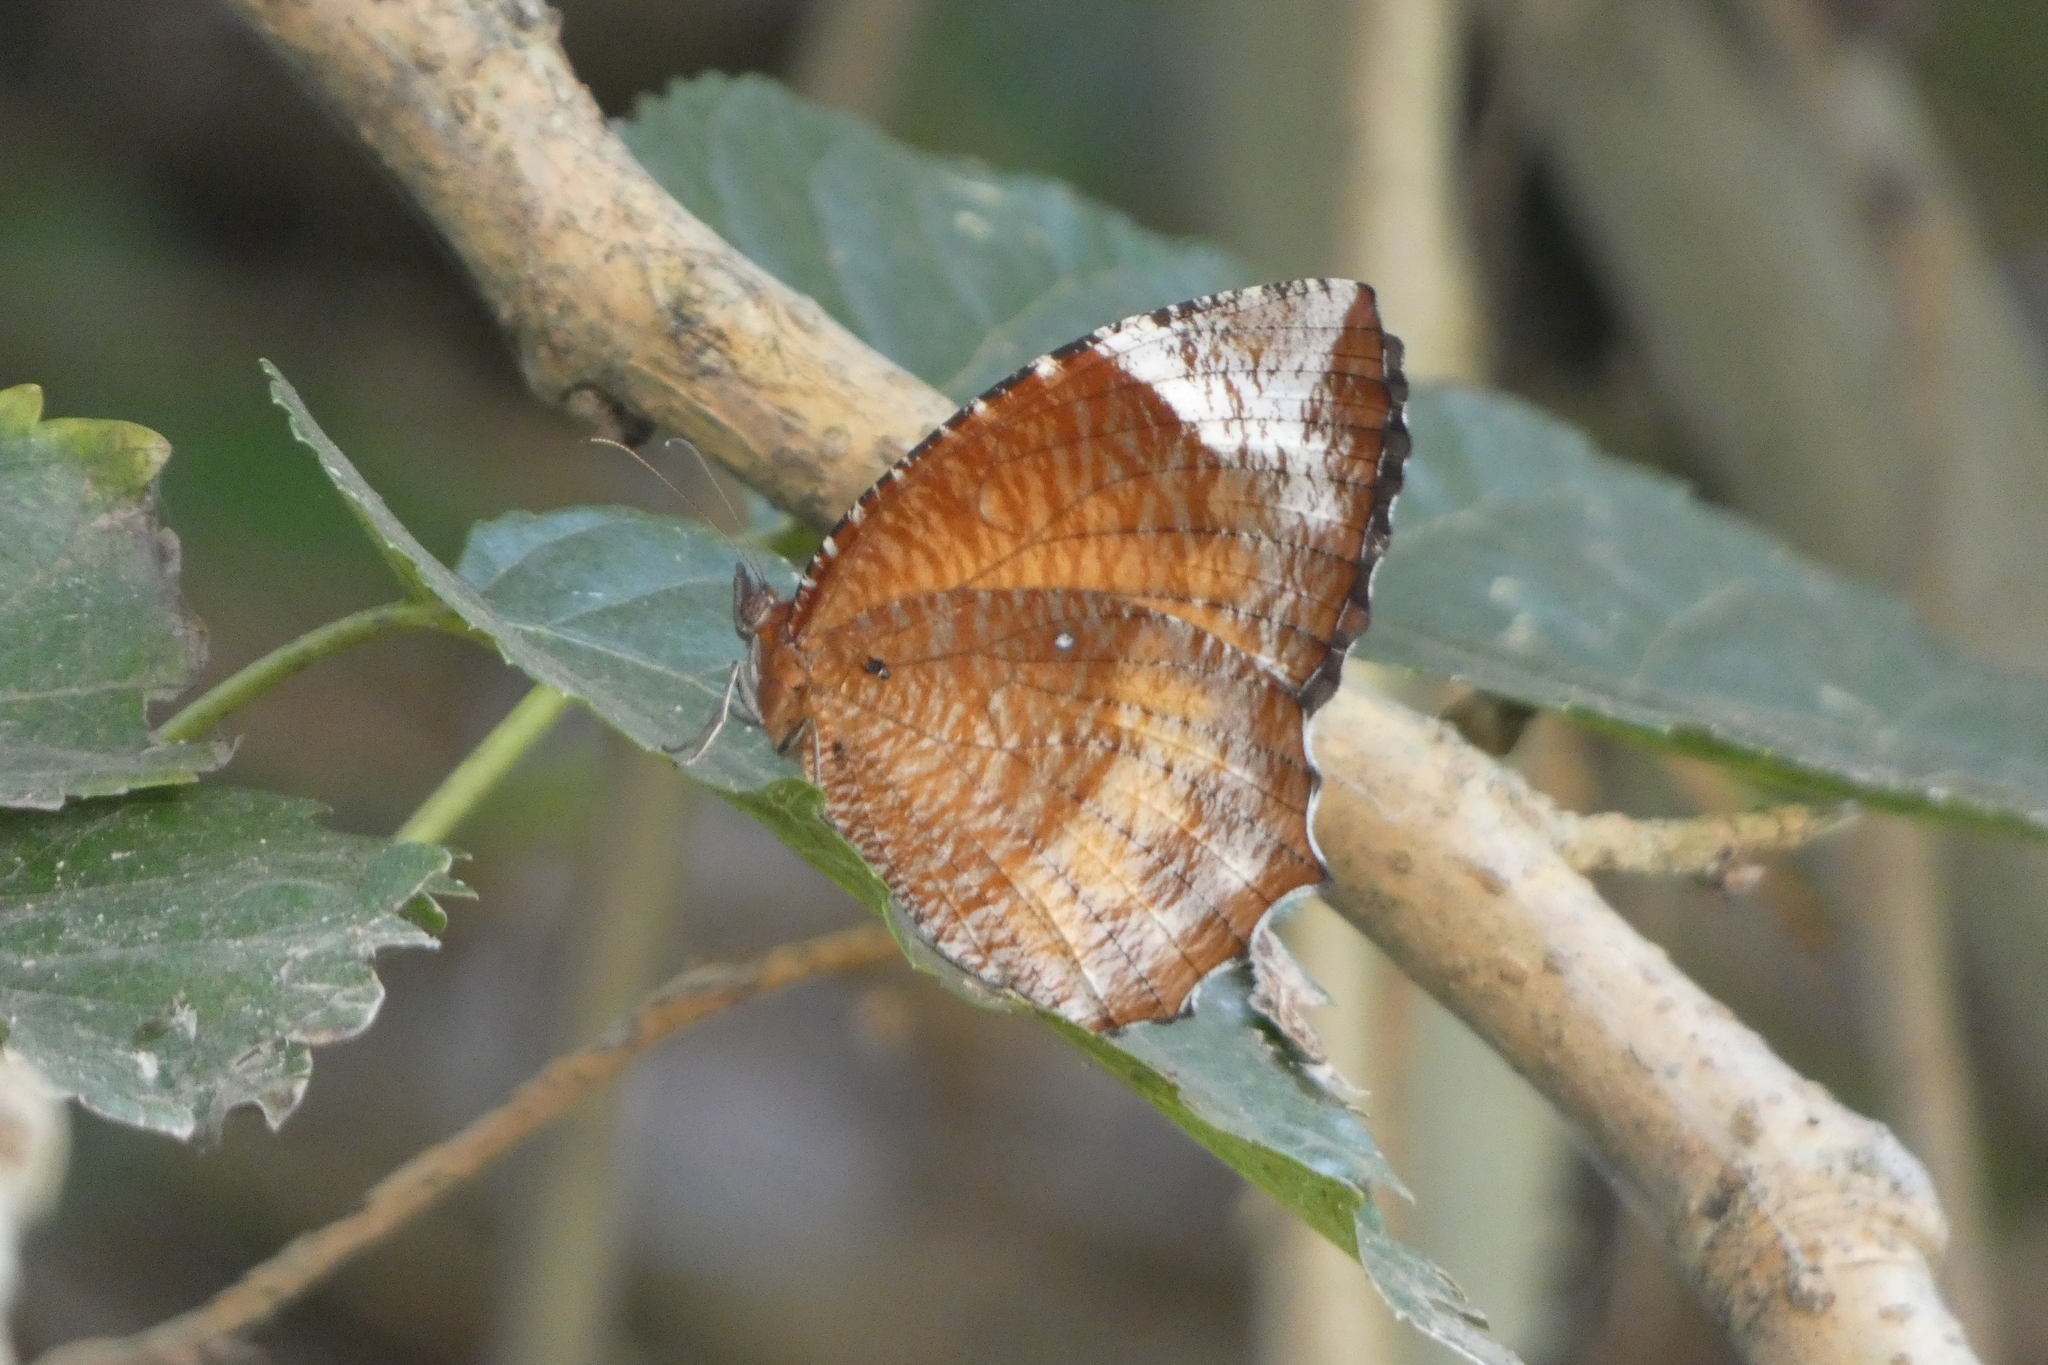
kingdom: Animalia
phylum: Arthropoda
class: Insecta
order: Lepidoptera
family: Nymphalidae
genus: Elymnias
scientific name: Elymnias hypermnestra
